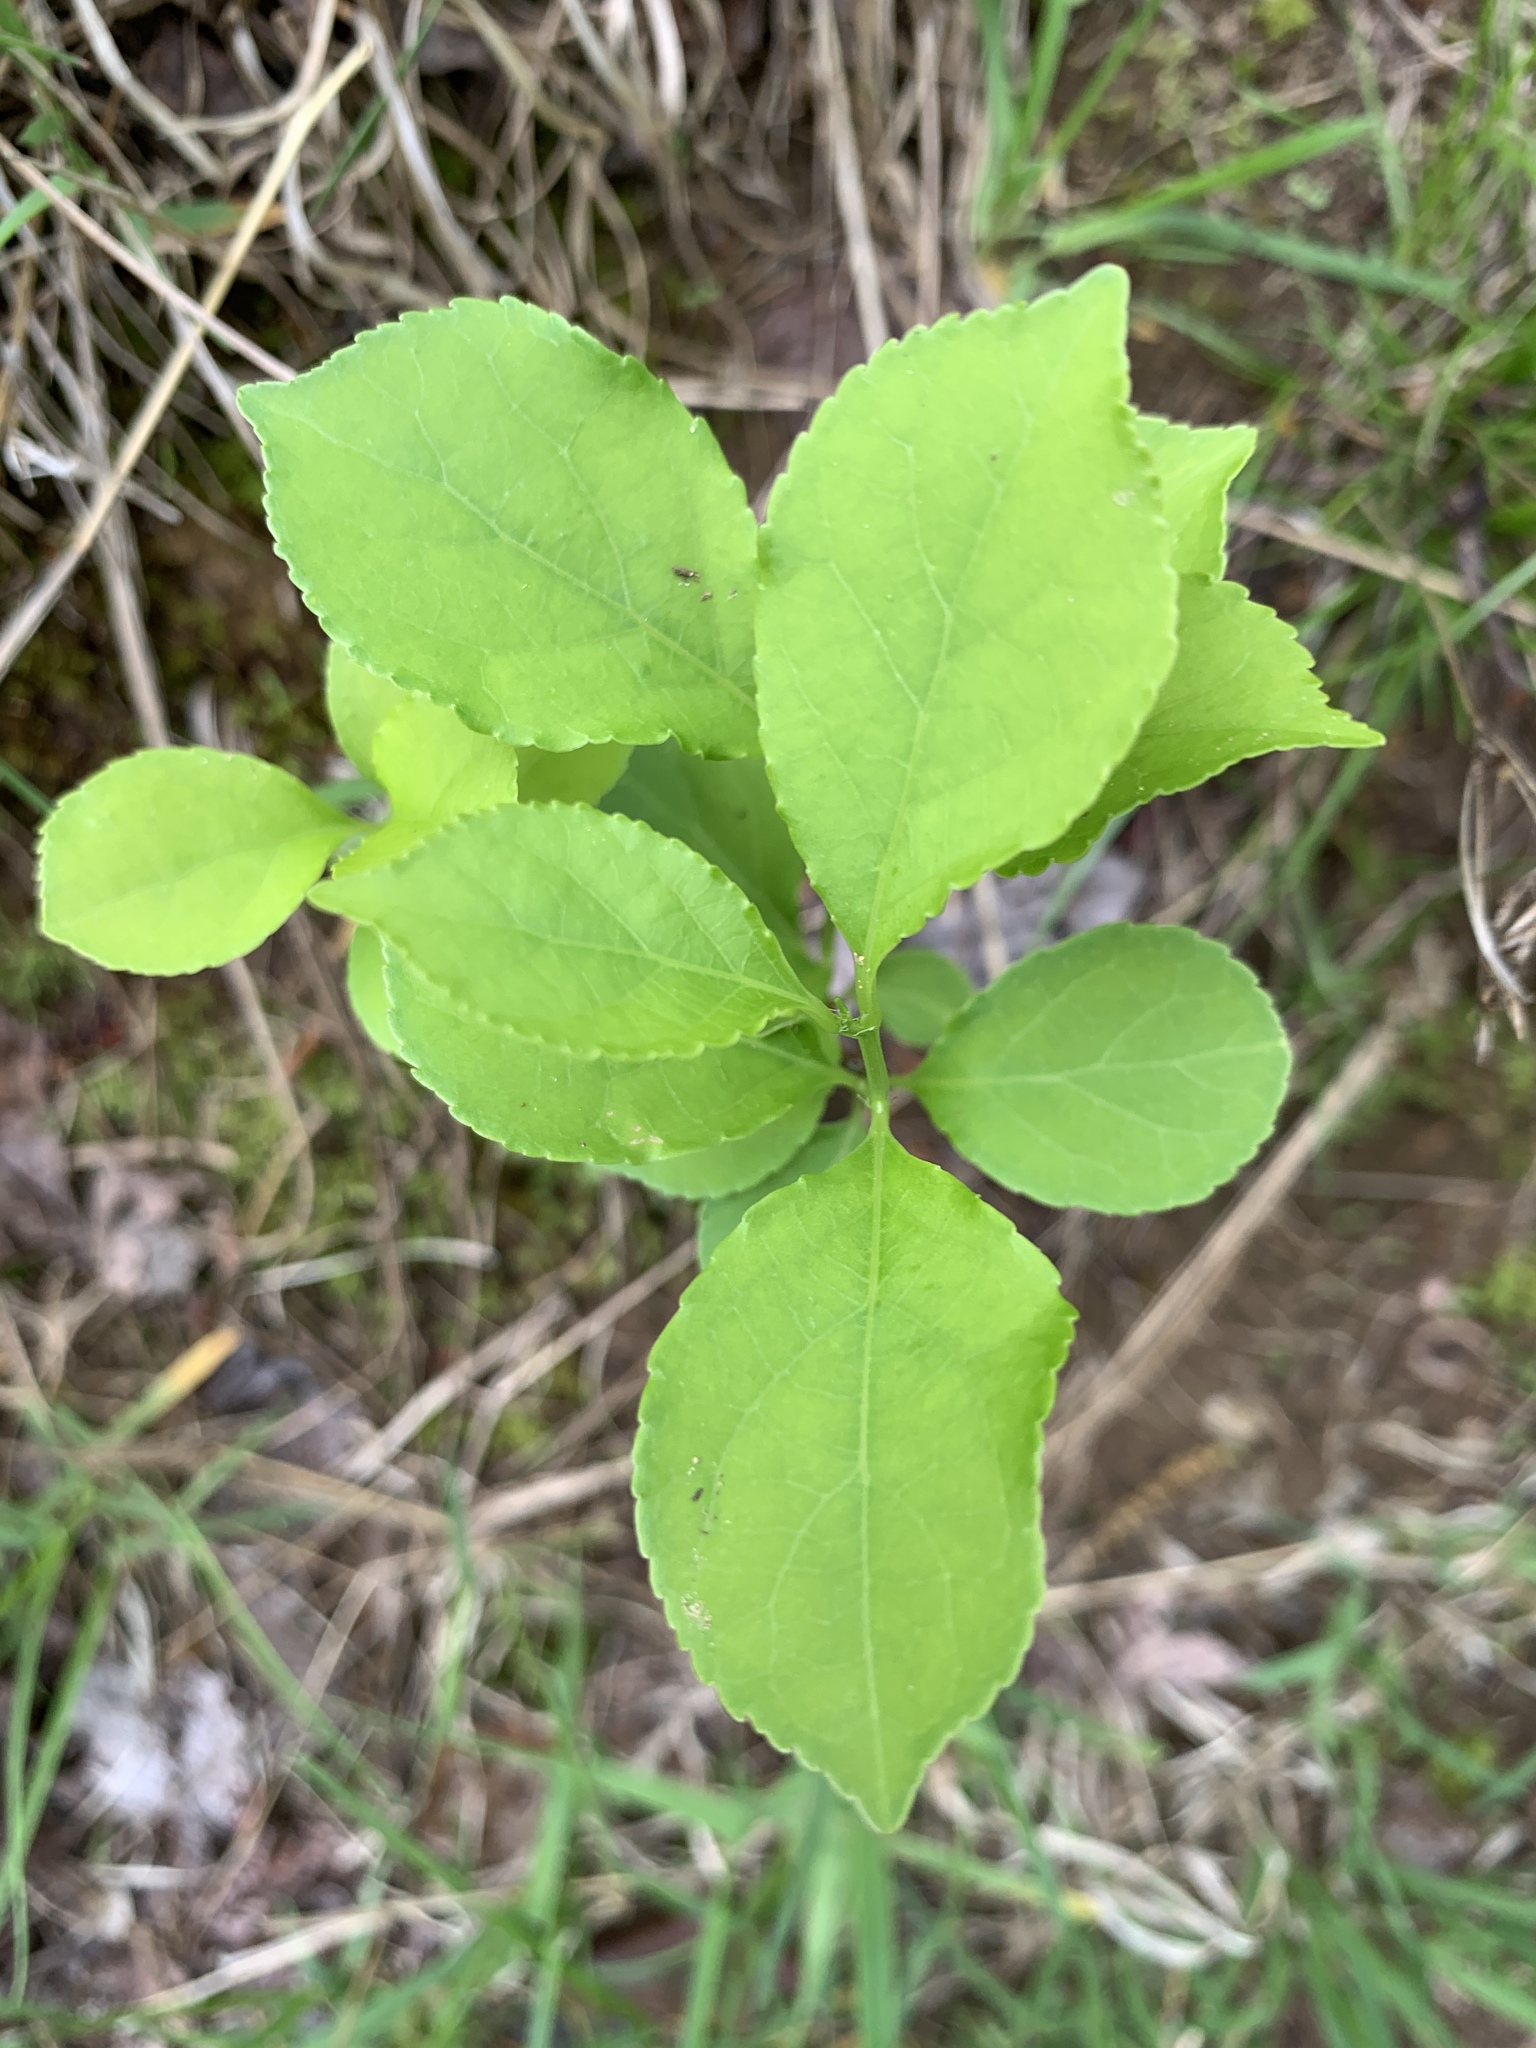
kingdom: Plantae
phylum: Tracheophyta
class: Magnoliopsida
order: Celastrales
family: Celastraceae
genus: Celastrus
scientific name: Celastrus orbiculatus
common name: Oriental bittersweet
